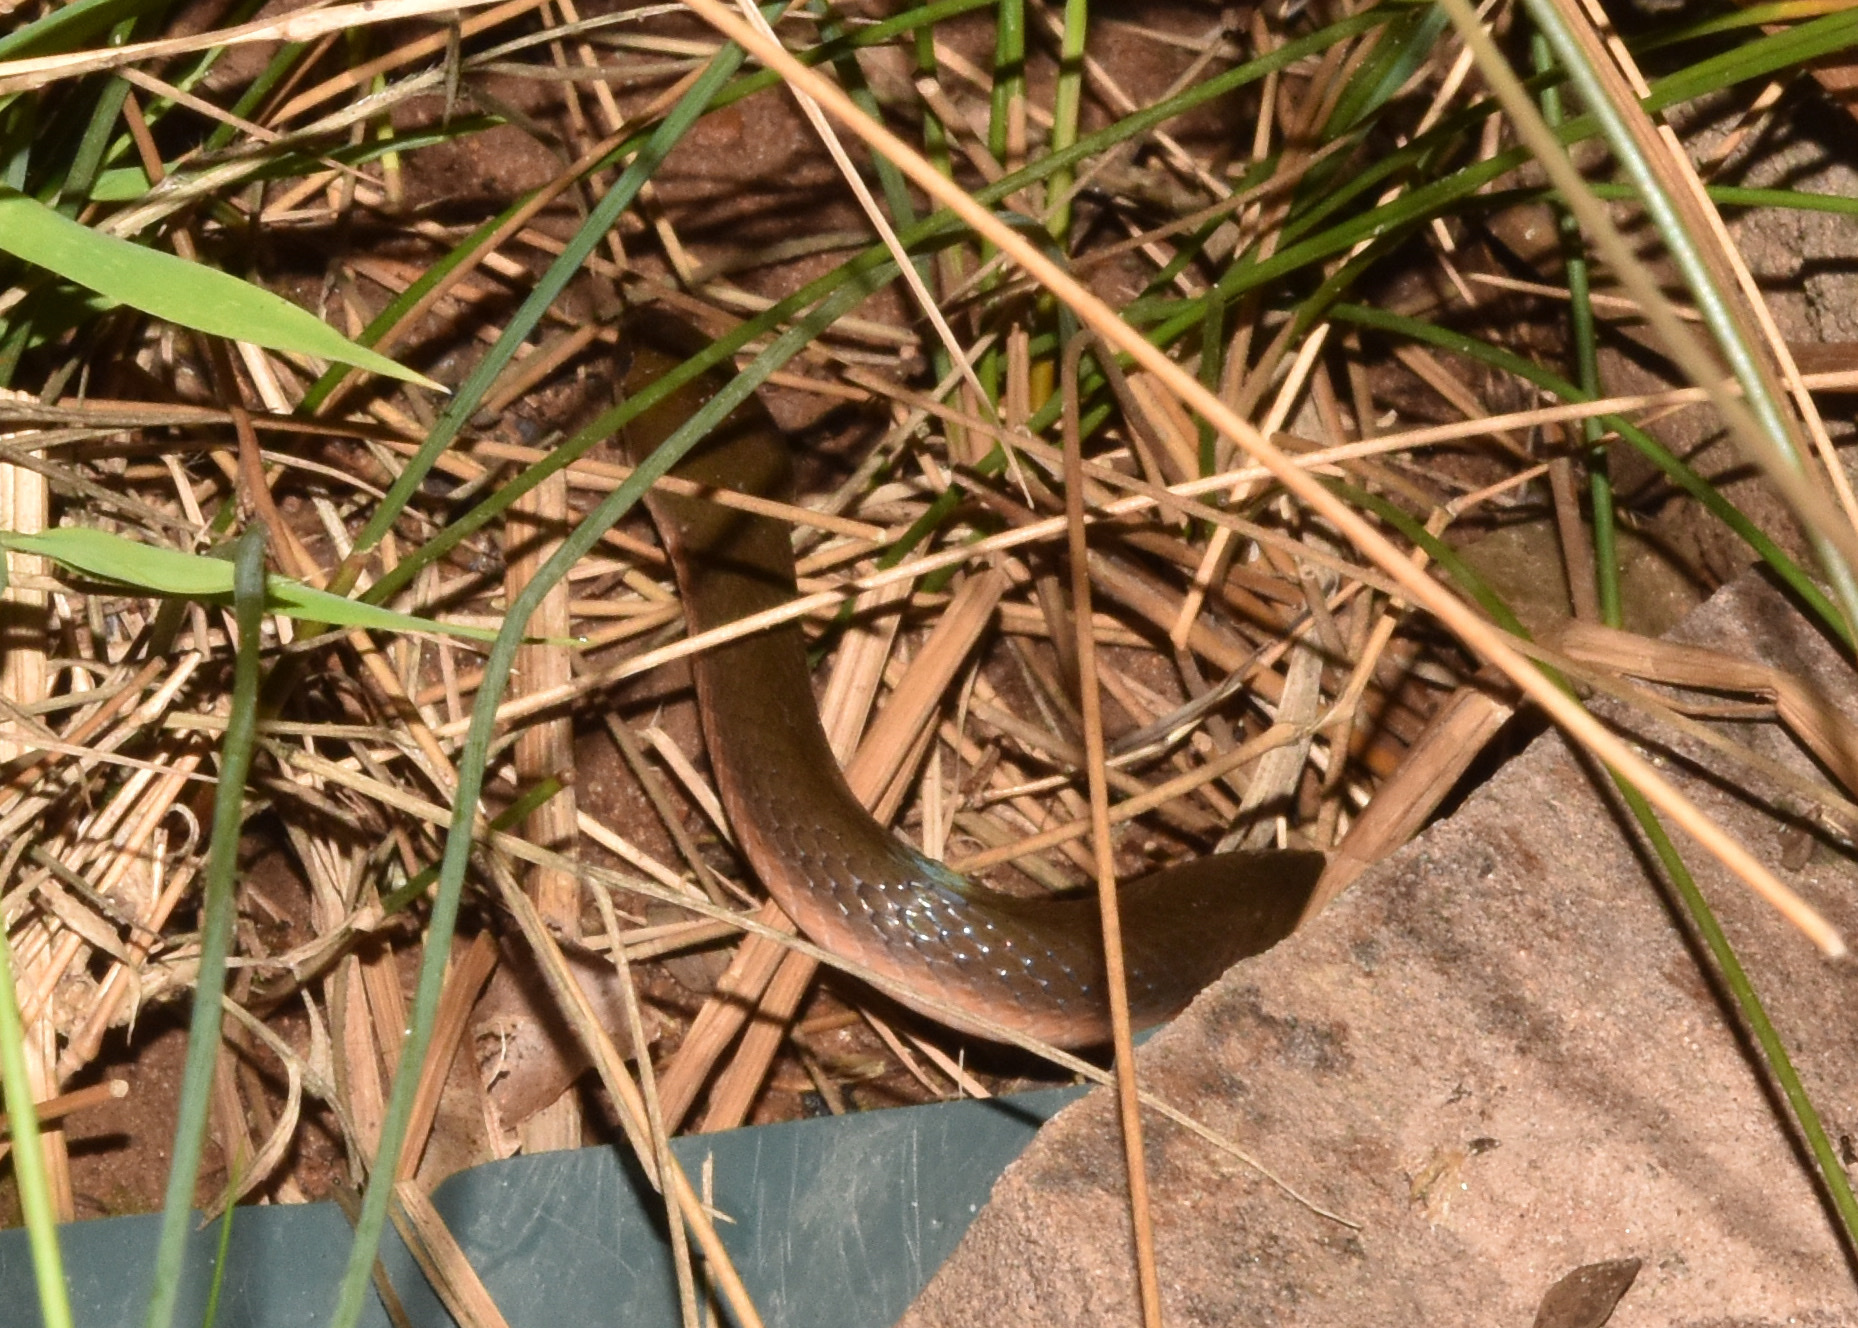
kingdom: Animalia
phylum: Chordata
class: Squamata
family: Lamprophiidae
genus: Lycodonomorphus
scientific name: Lycodonomorphus rufulus
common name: Brown water snake
